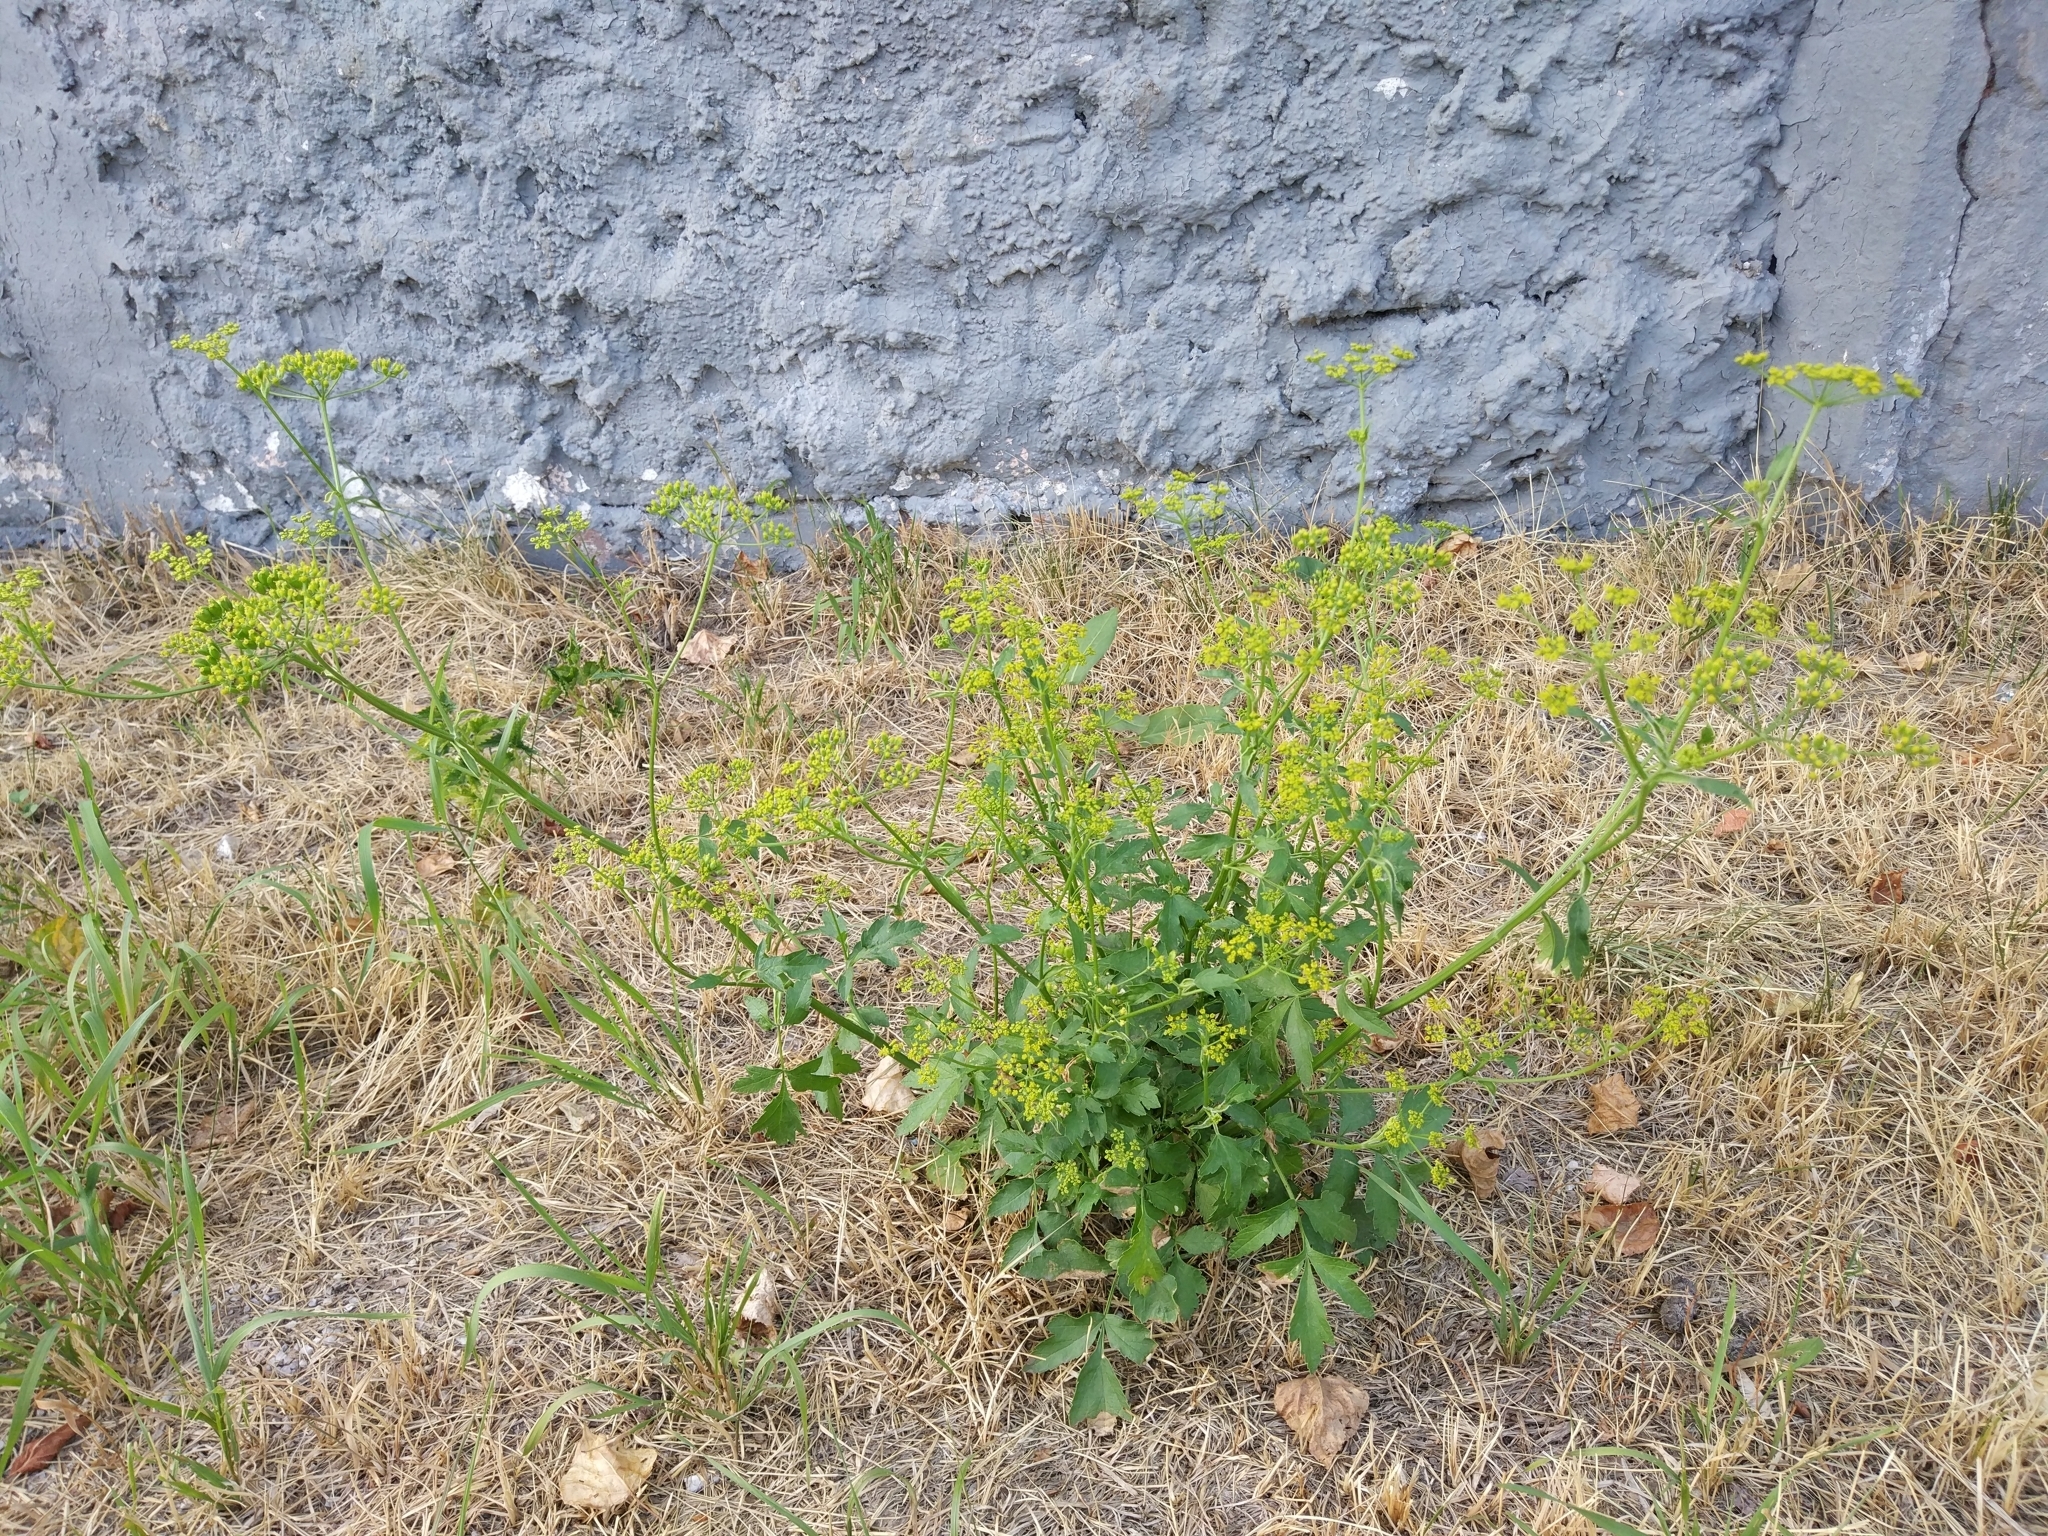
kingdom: Plantae
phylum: Tracheophyta
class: Magnoliopsida
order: Apiales
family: Apiaceae
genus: Pastinaca
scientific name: Pastinaca sativa
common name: Wild parsnip
